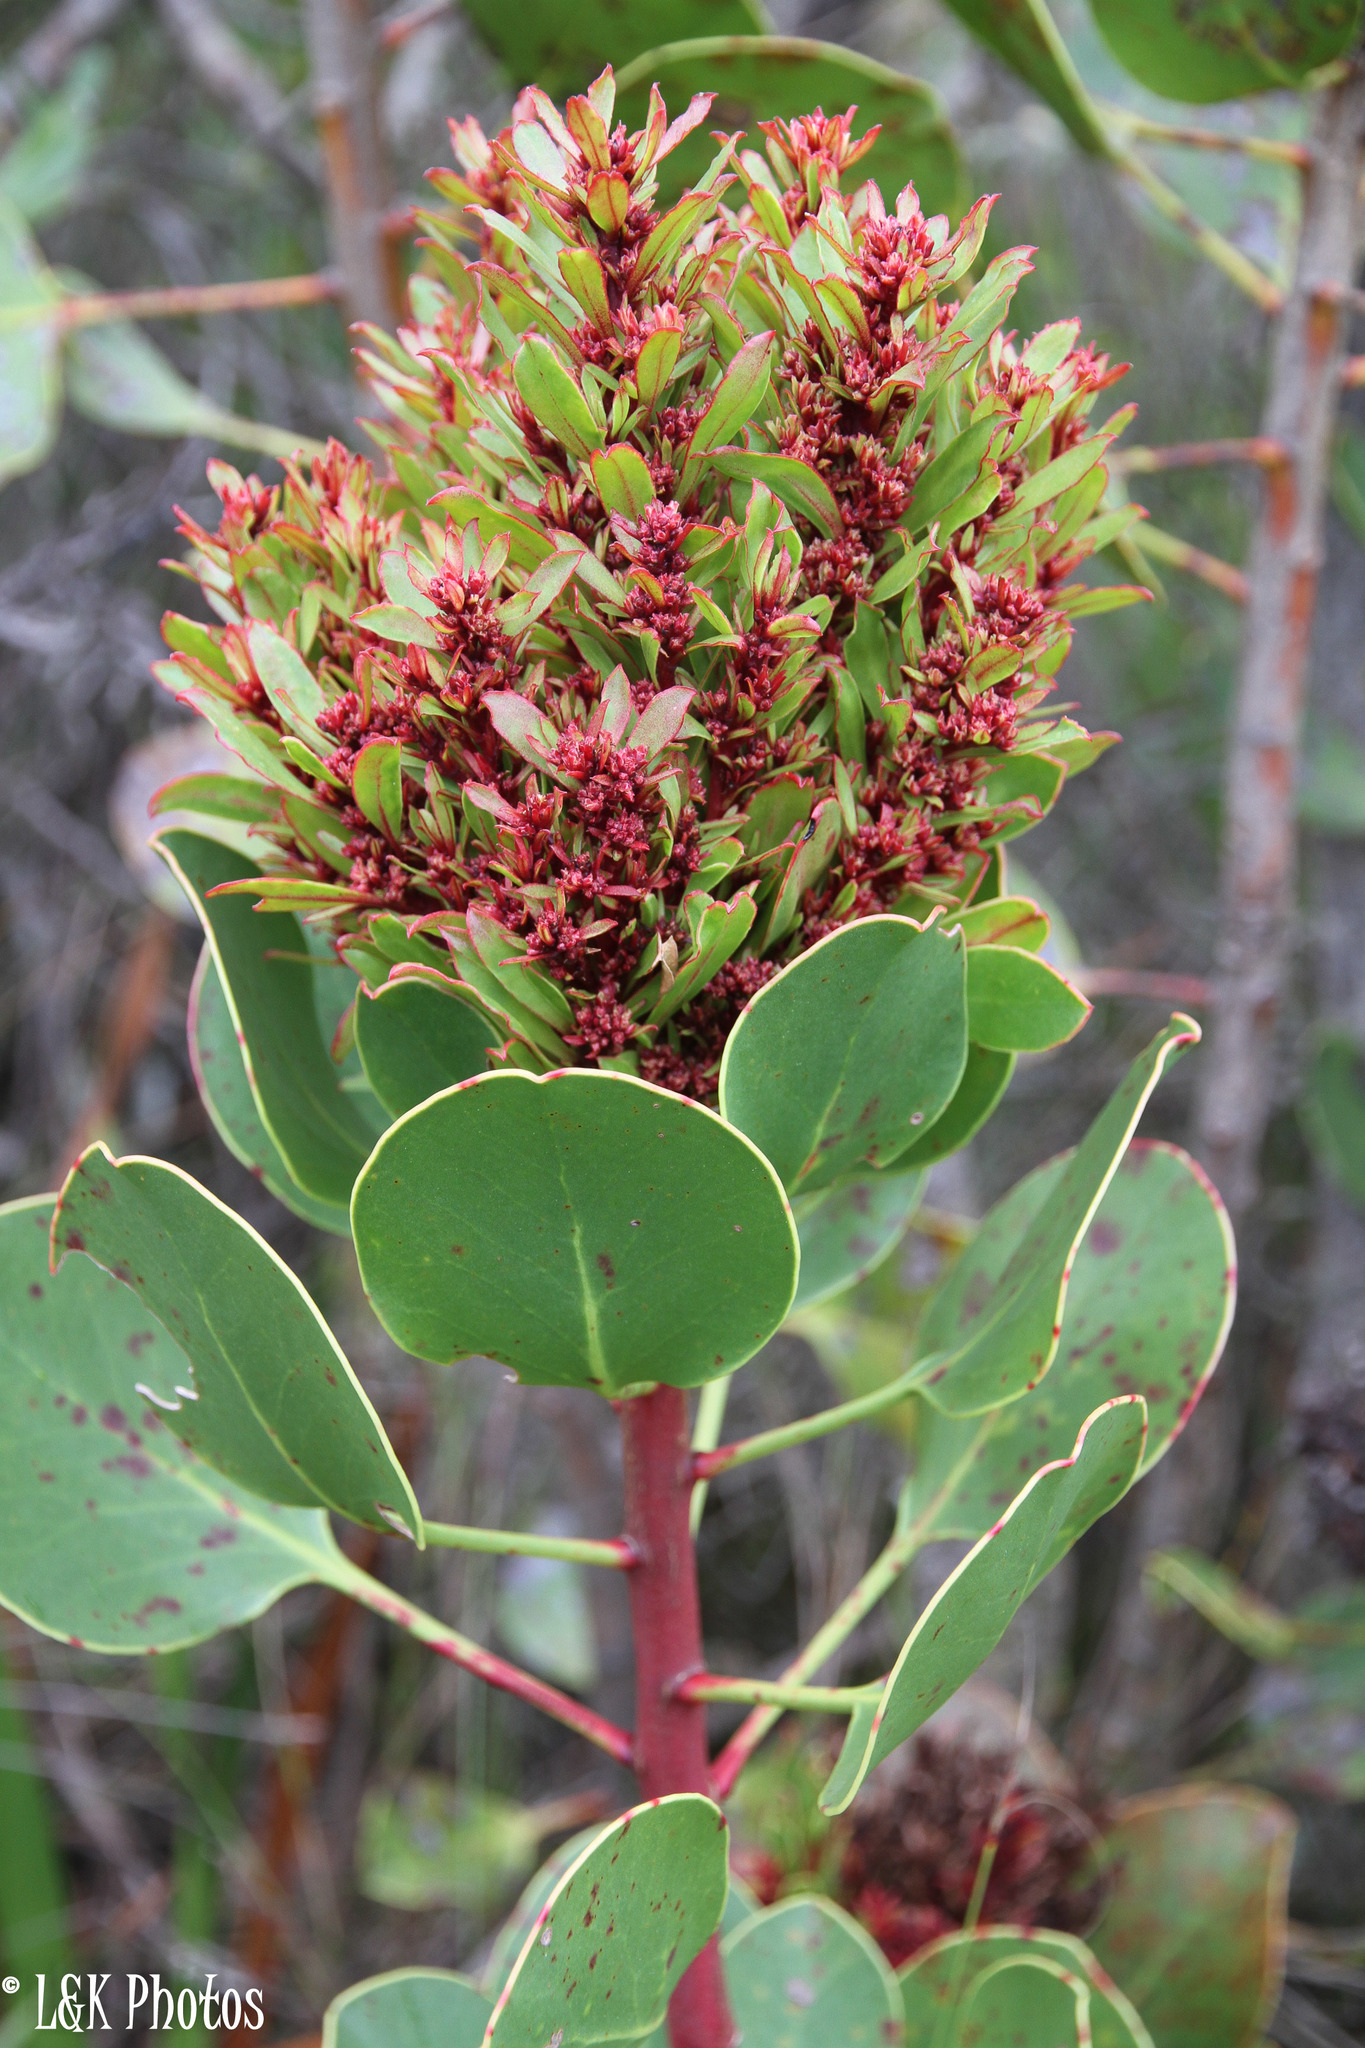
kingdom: Bacteria
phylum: Firmicutes
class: Bacilli
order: Acholeplasmatales
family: Acholeplasmataceae
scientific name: Acholeplasmataceae
